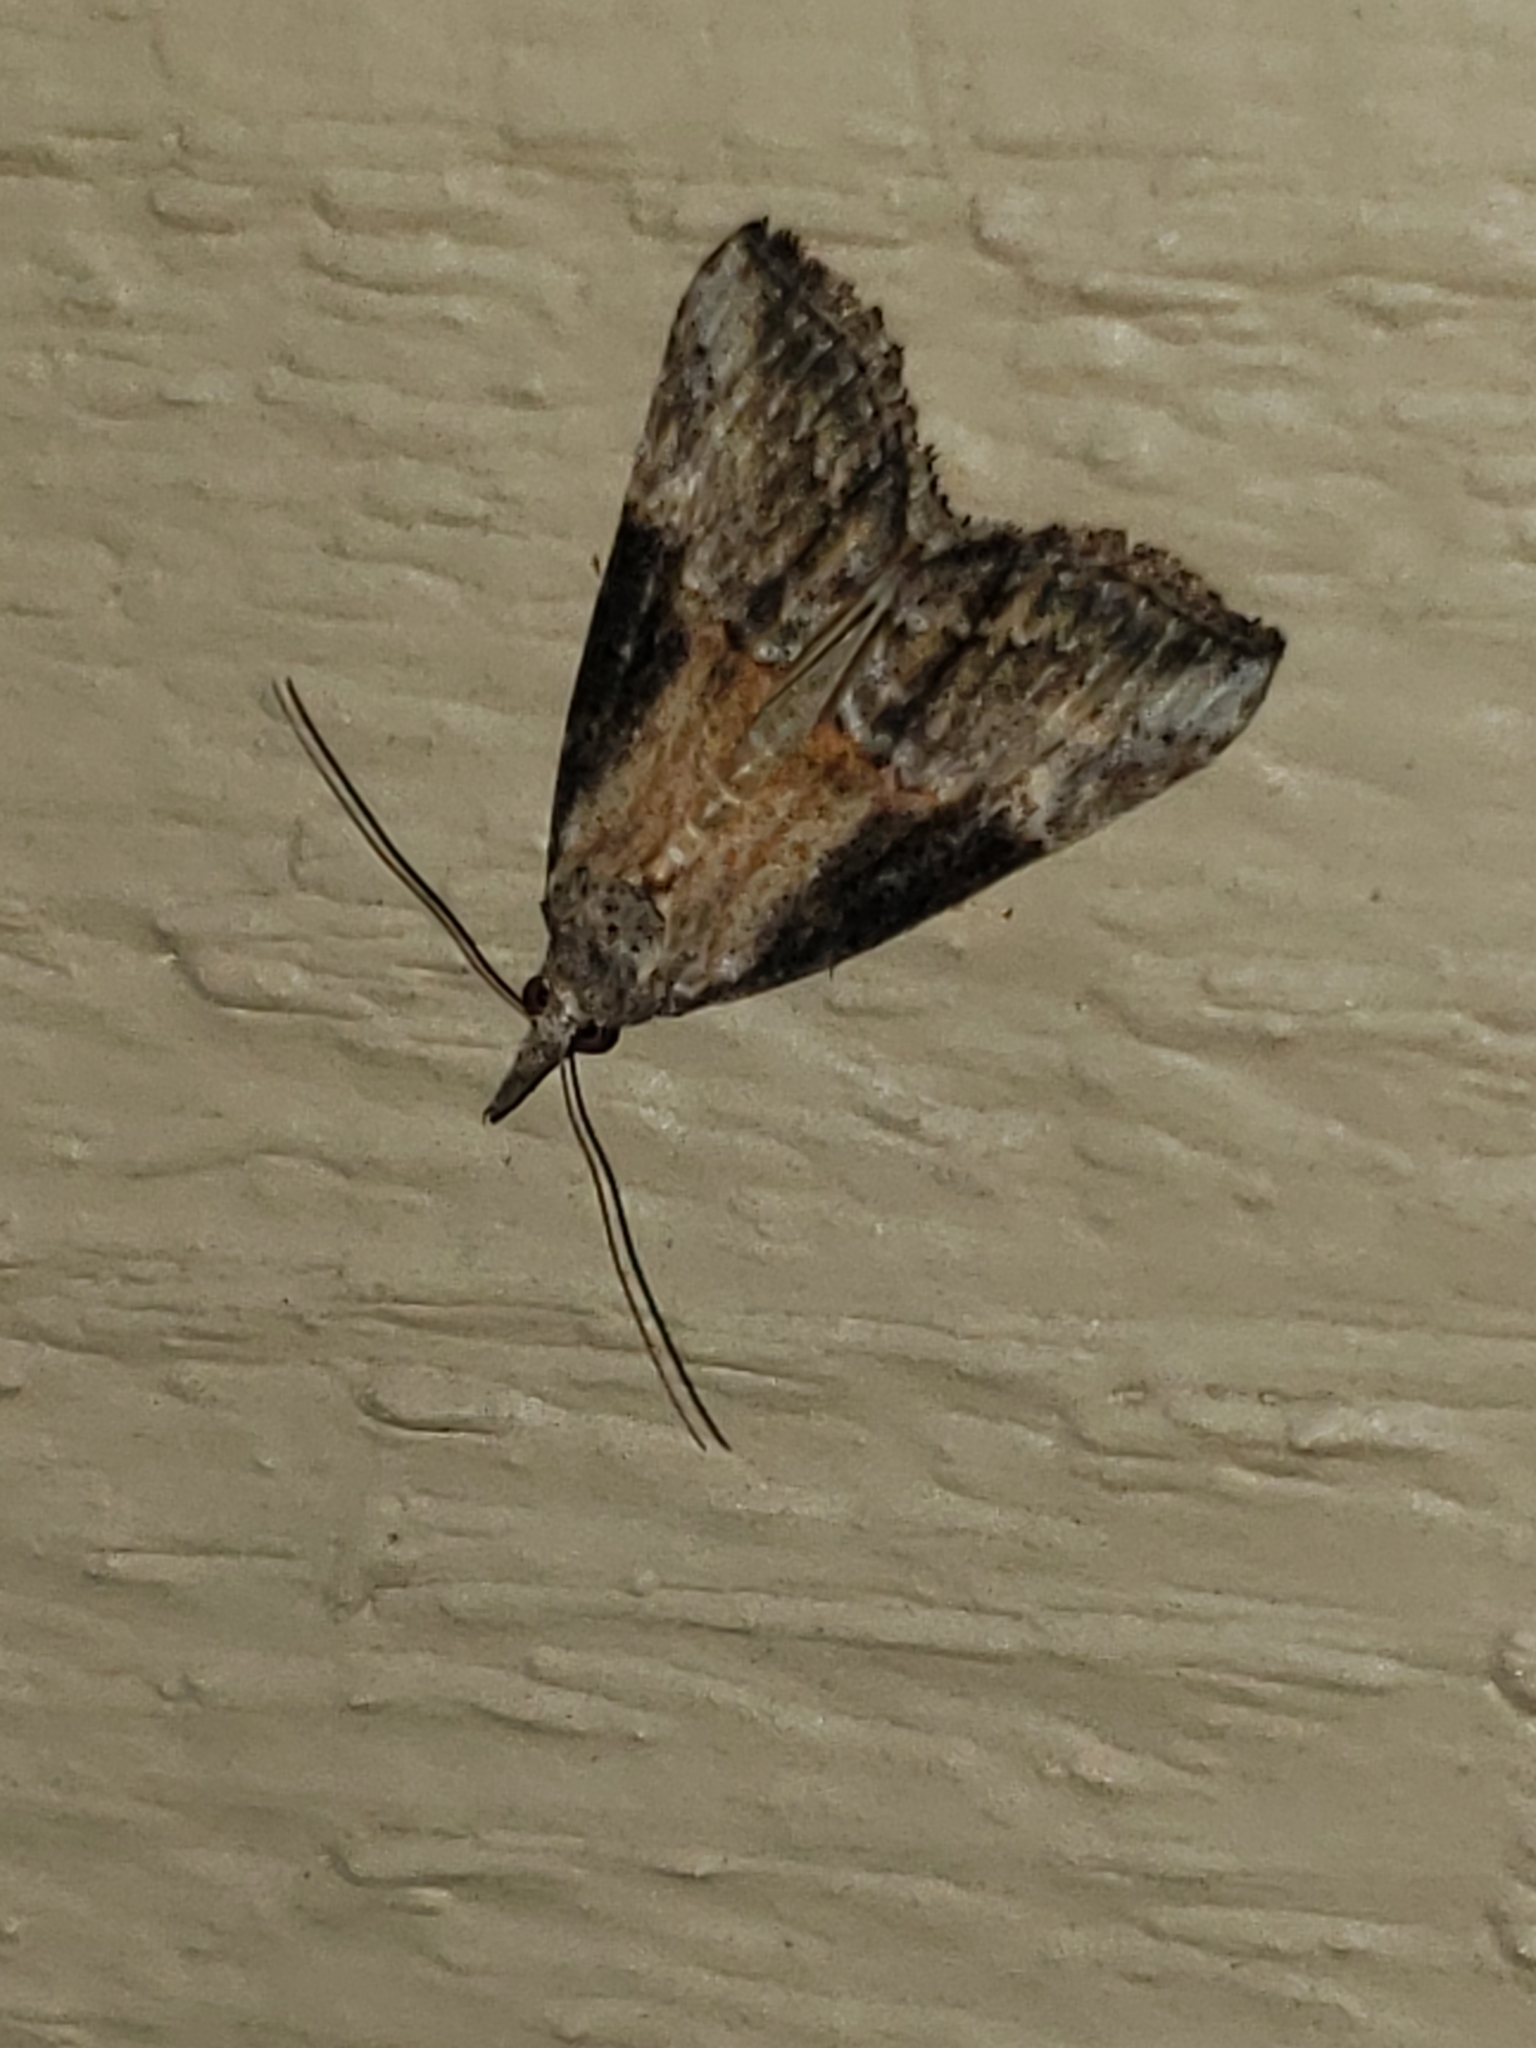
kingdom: Animalia
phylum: Arthropoda
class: Insecta
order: Lepidoptera
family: Erebidae
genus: Hypena
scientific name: Hypena scabra
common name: Green cloverworm
